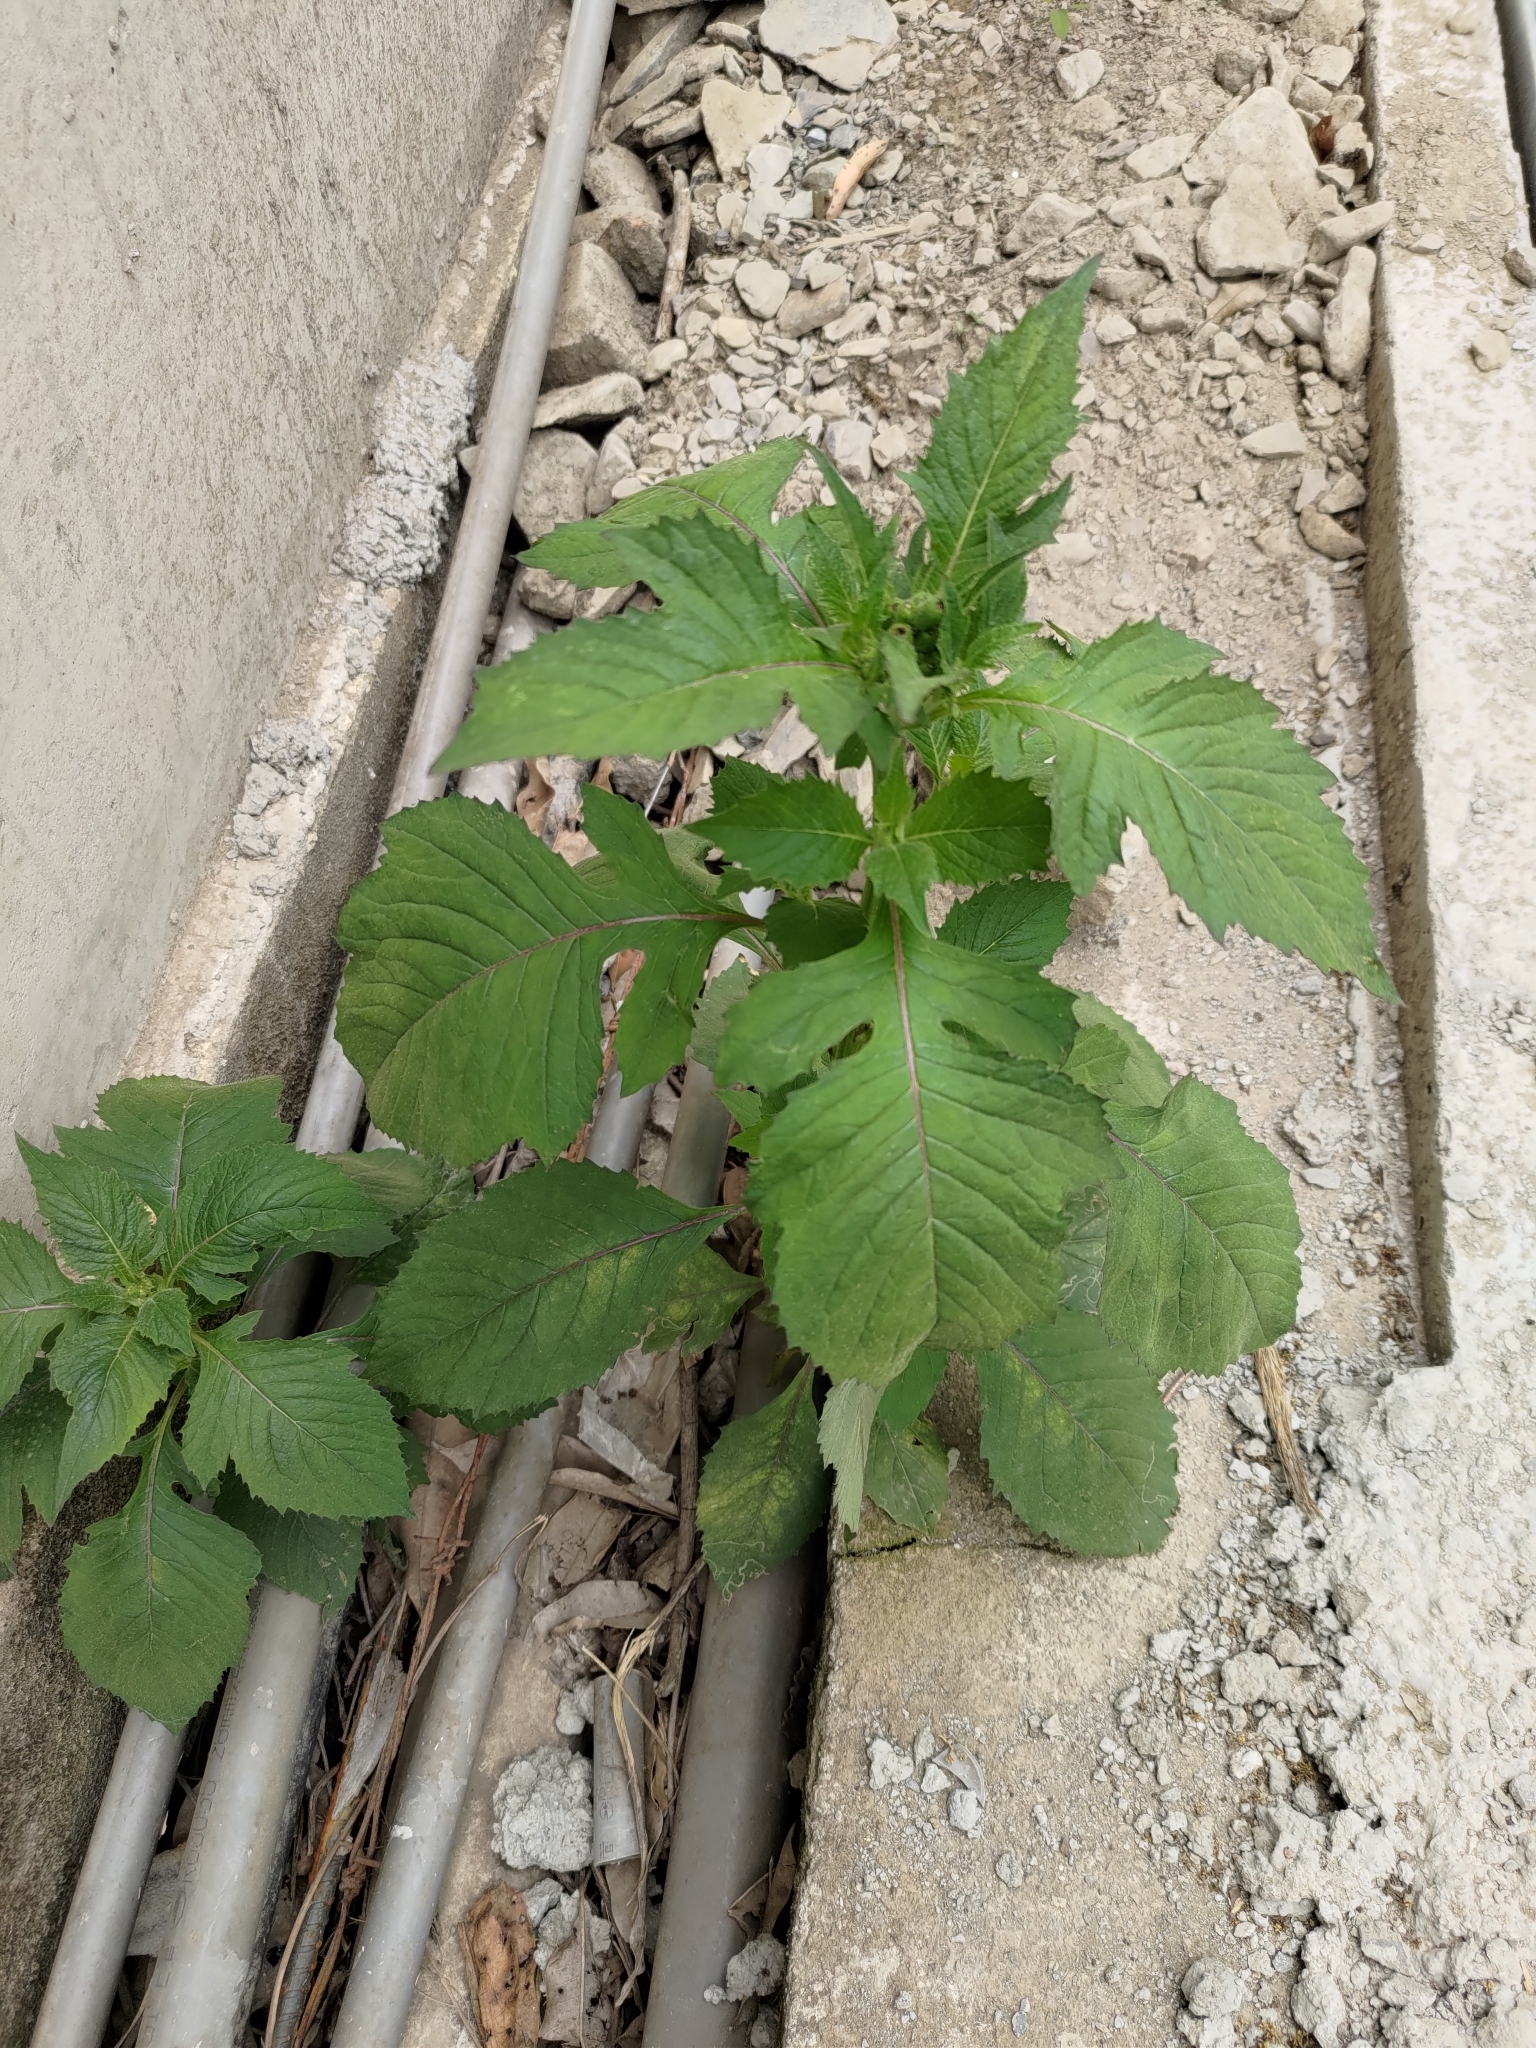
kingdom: Plantae
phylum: Tracheophyta
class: Magnoliopsida
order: Asterales
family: Asteraceae
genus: Crassocephalum
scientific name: Crassocephalum crepidioides
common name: Redflower ragleaf
